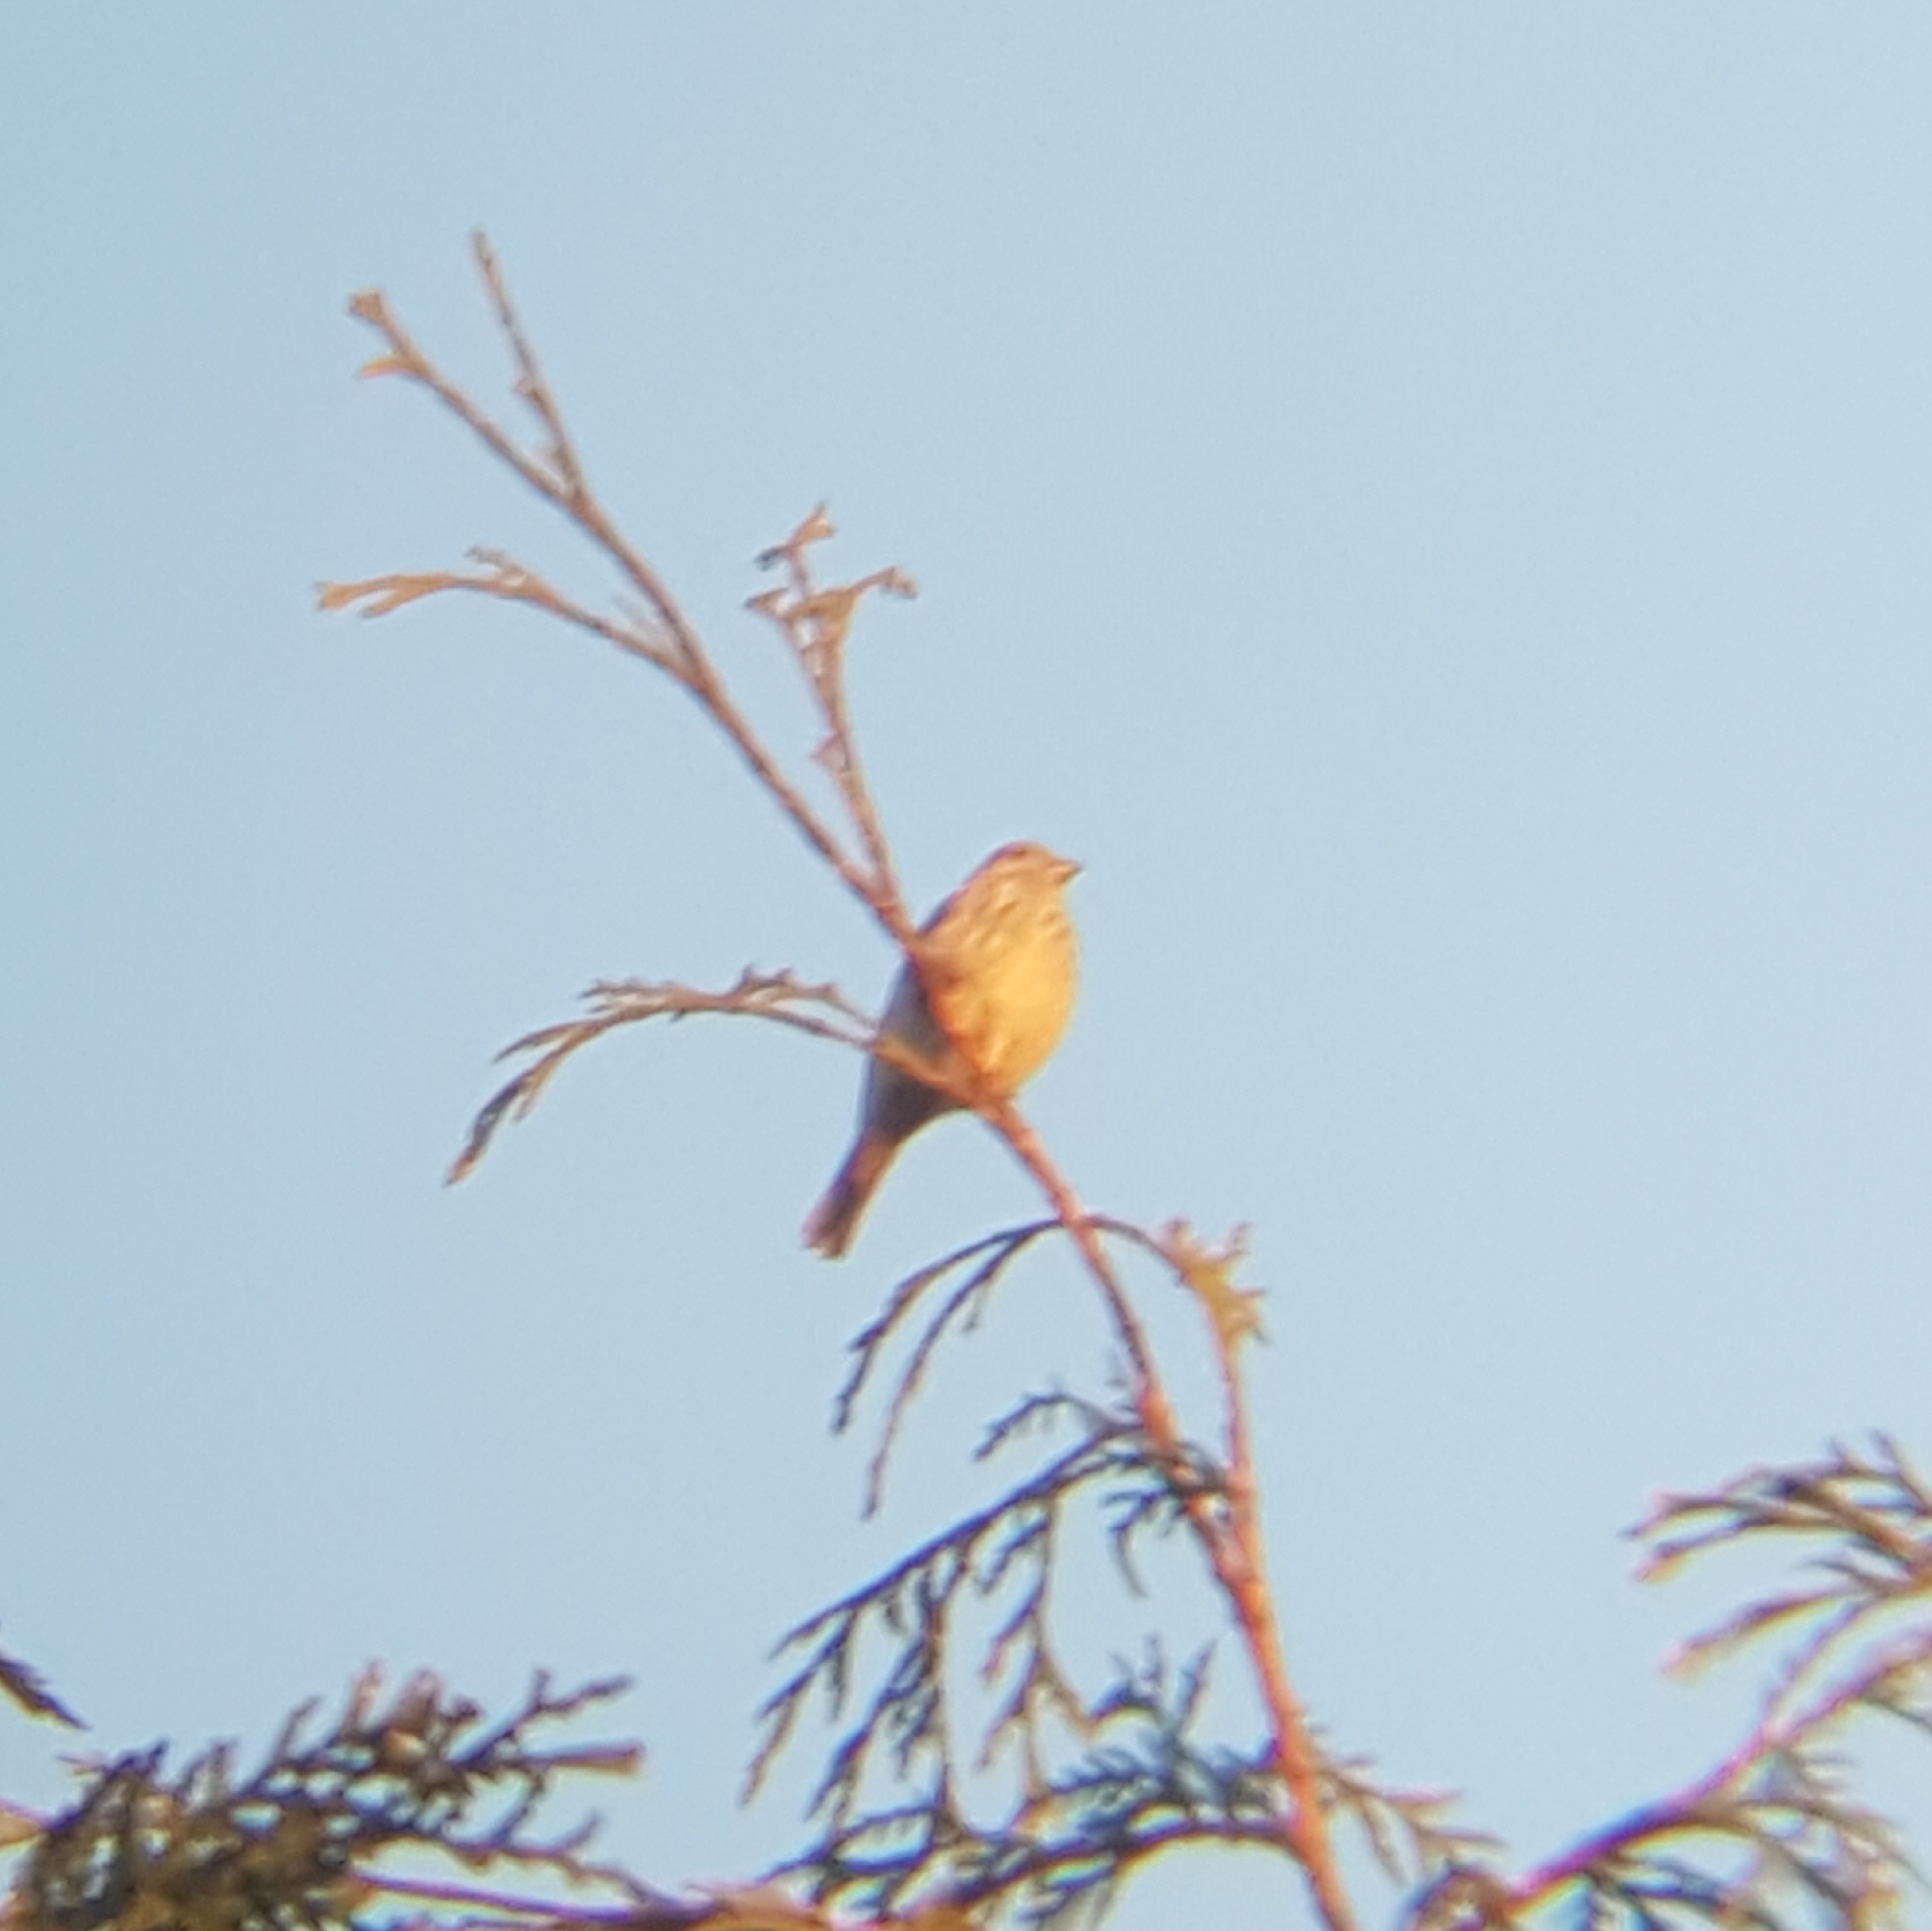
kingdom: Animalia
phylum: Chordata
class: Aves
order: Passeriformes
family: Fringillidae
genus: Haemorhous
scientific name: Haemorhous
